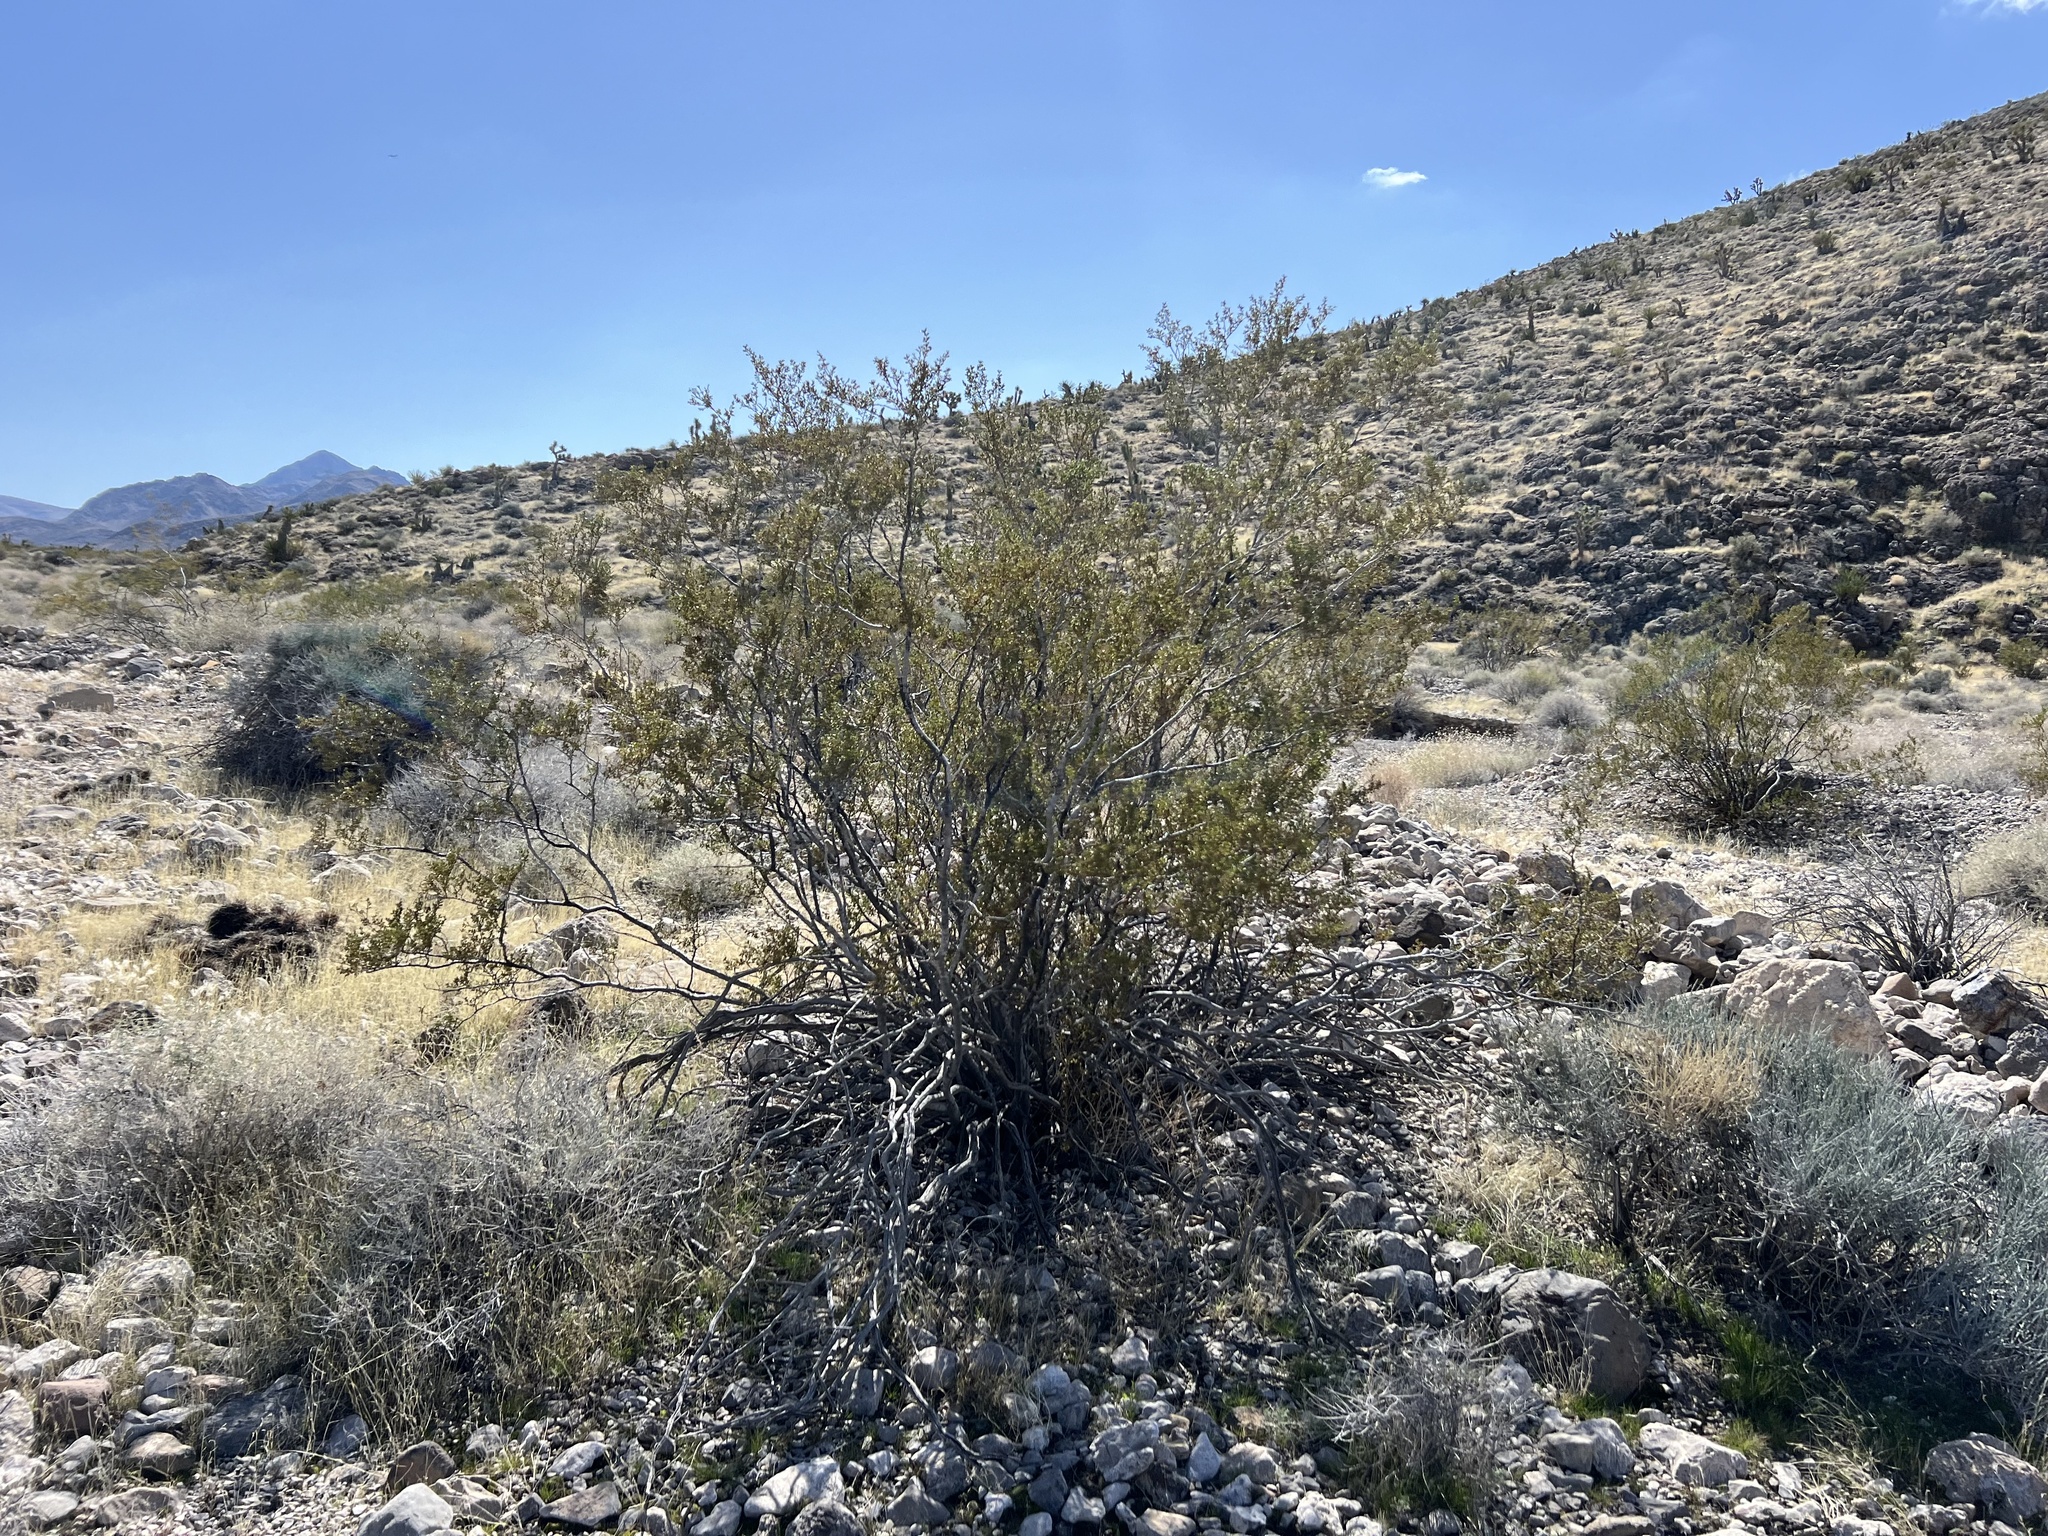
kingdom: Plantae
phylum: Tracheophyta
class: Magnoliopsida
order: Zygophyllales
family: Zygophyllaceae
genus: Larrea
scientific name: Larrea tridentata
